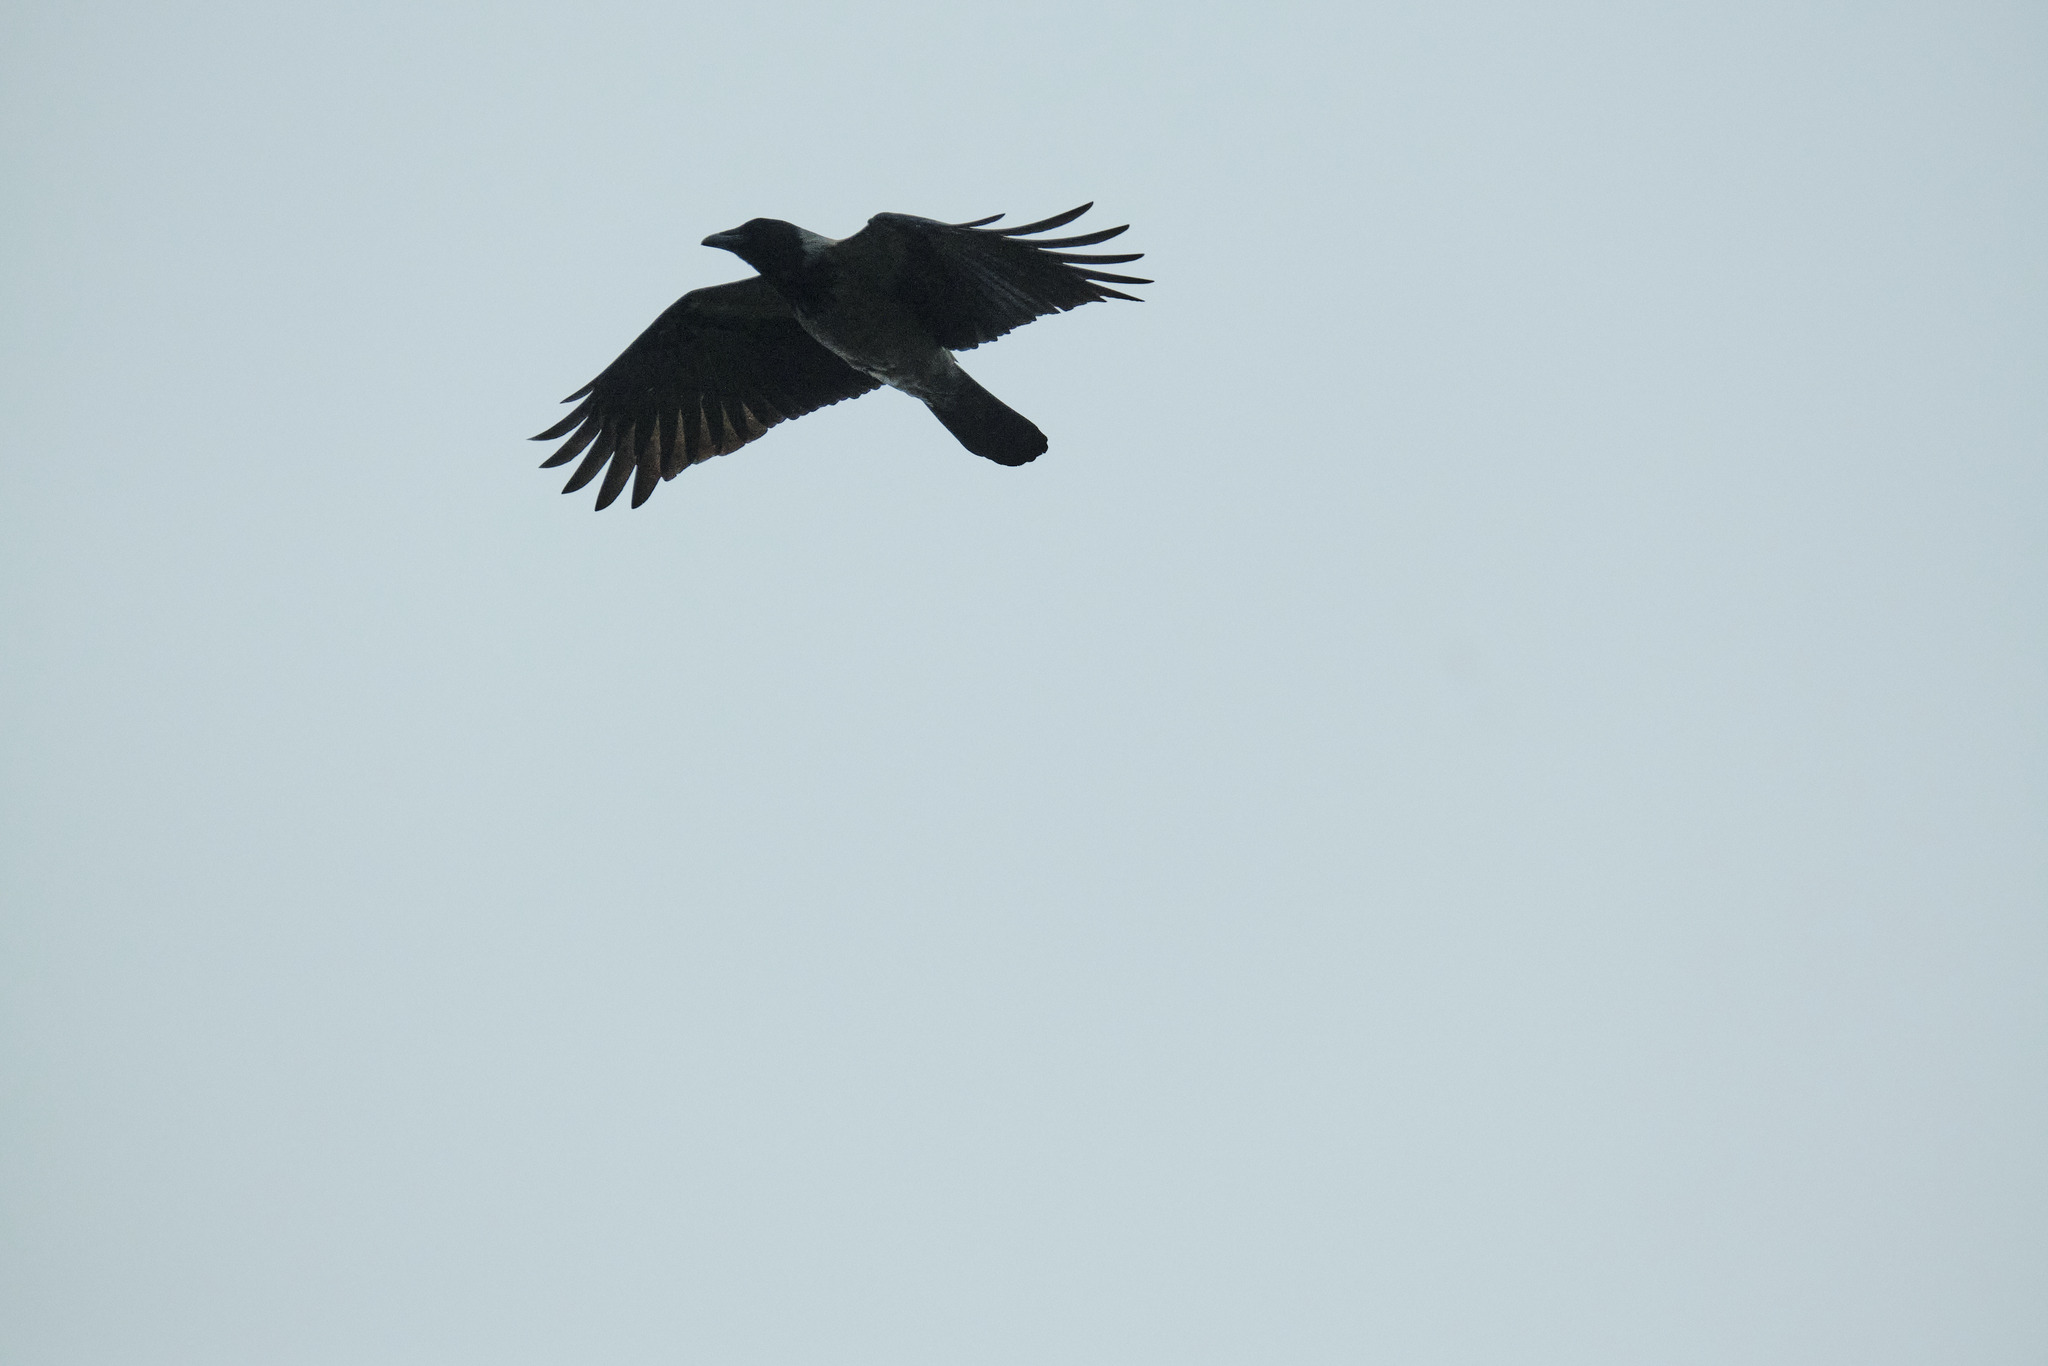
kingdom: Animalia
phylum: Chordata
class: Aves
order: Passeriformes
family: Corvidae
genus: Corvus
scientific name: Corvus cornix
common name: Hooded crow
